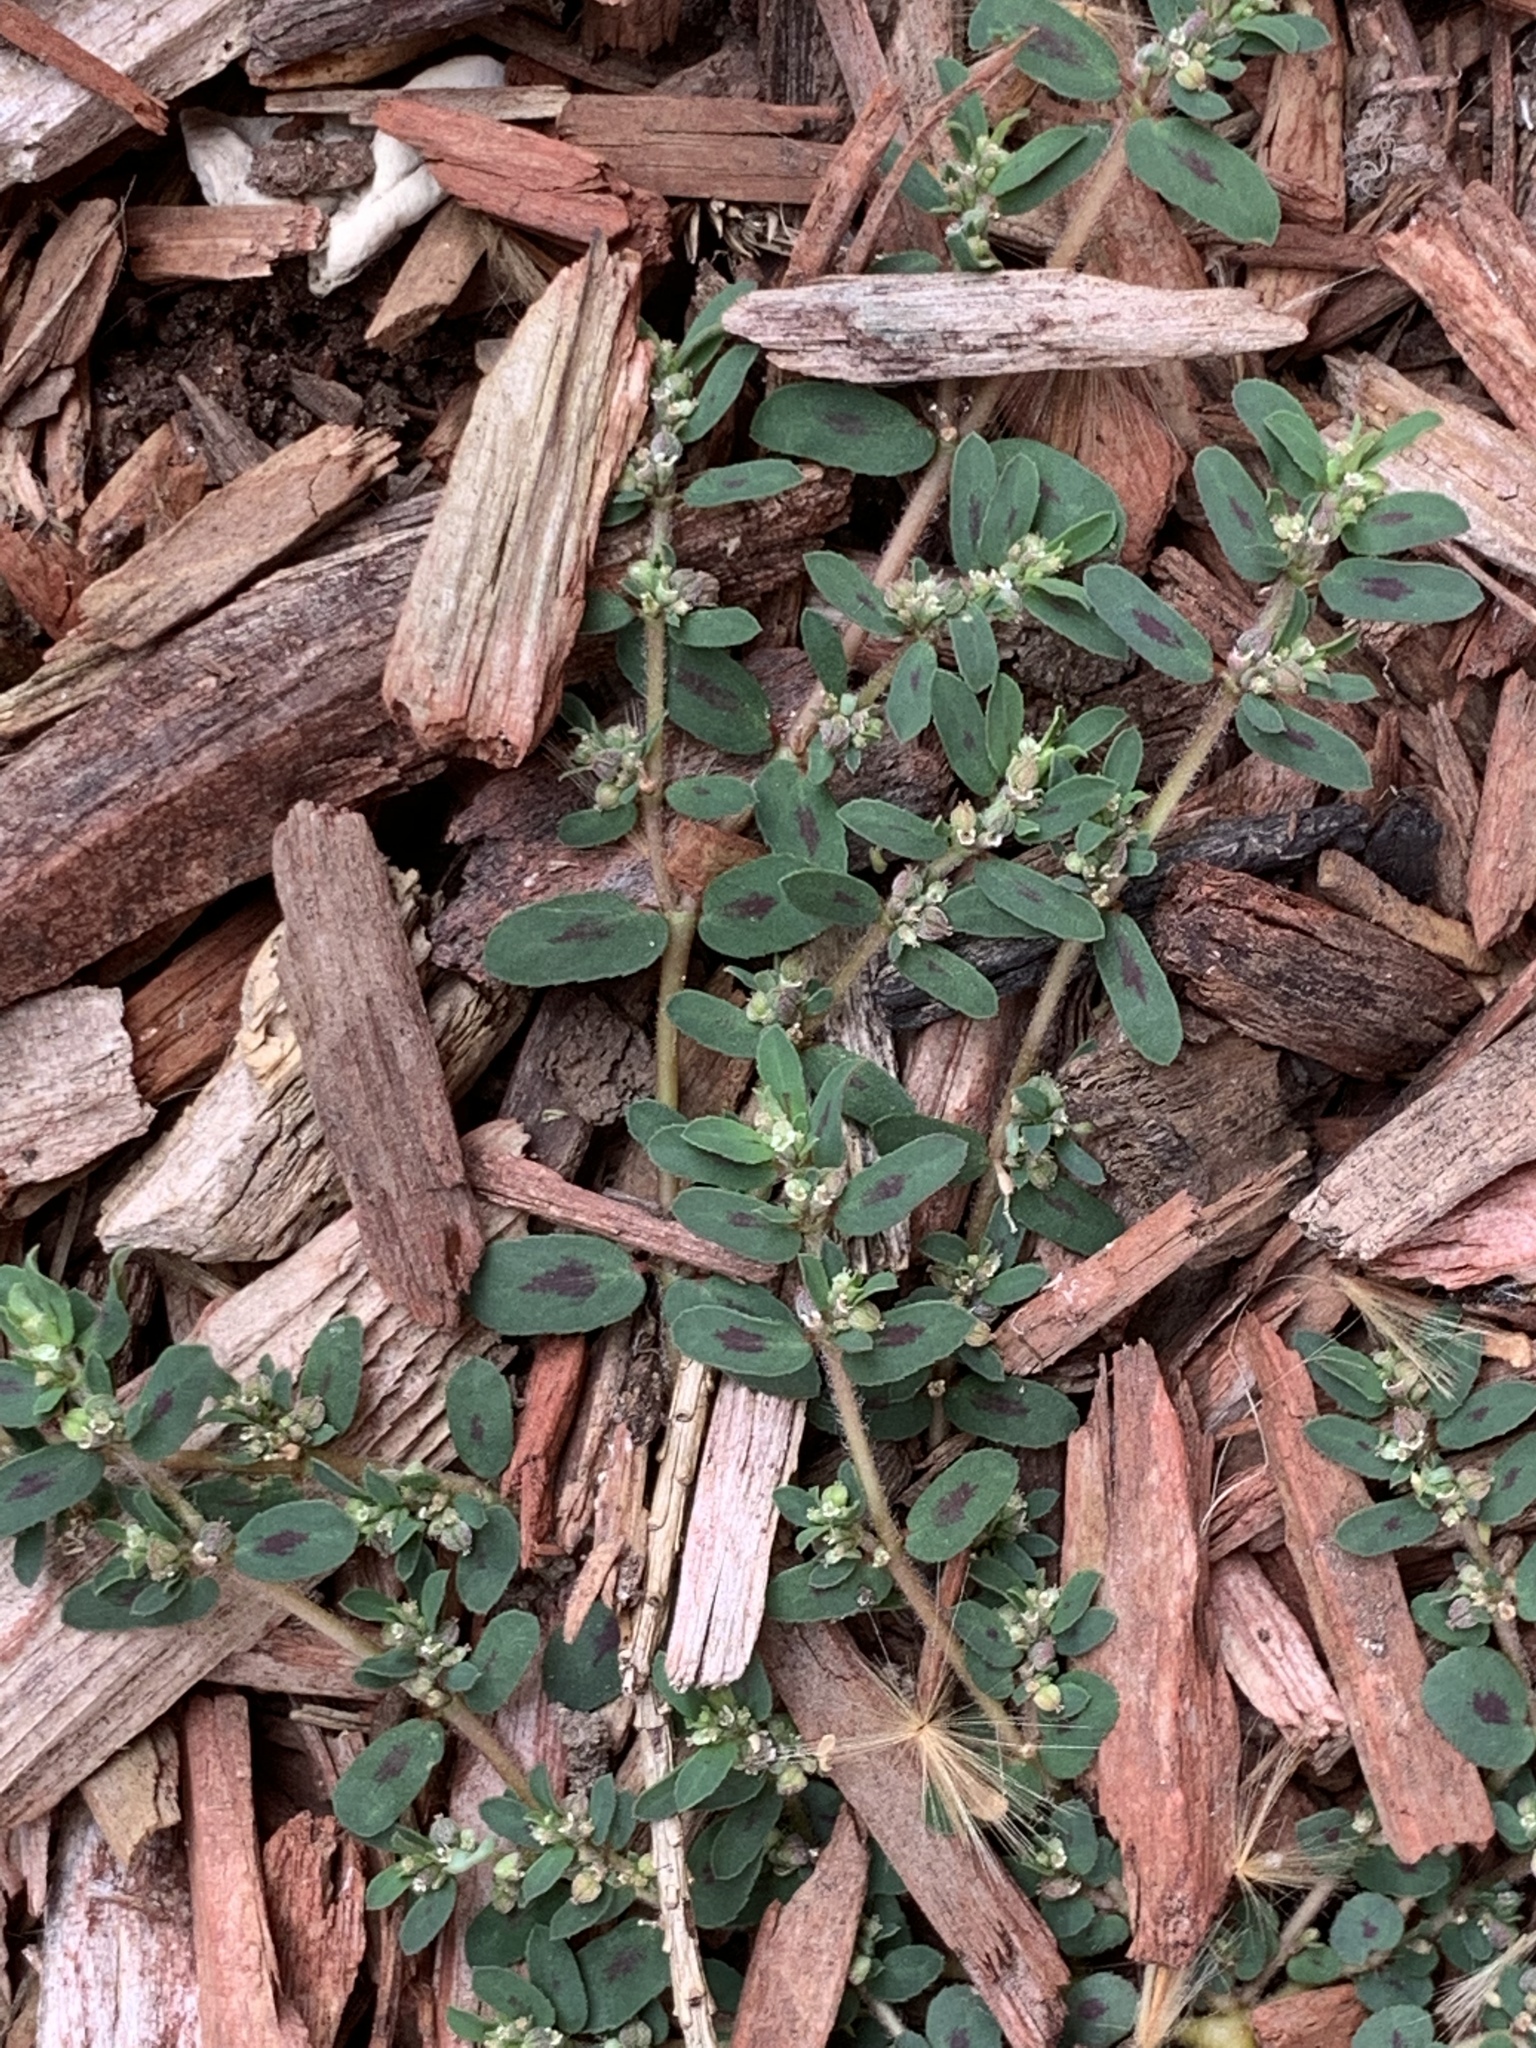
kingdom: Plantae
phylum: Tracheophyta
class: Magnoliopsida
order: Malpighiales
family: Euphorbiaceae
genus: Euphorbia
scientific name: Euphorbia maculata
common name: Spotted spurge
